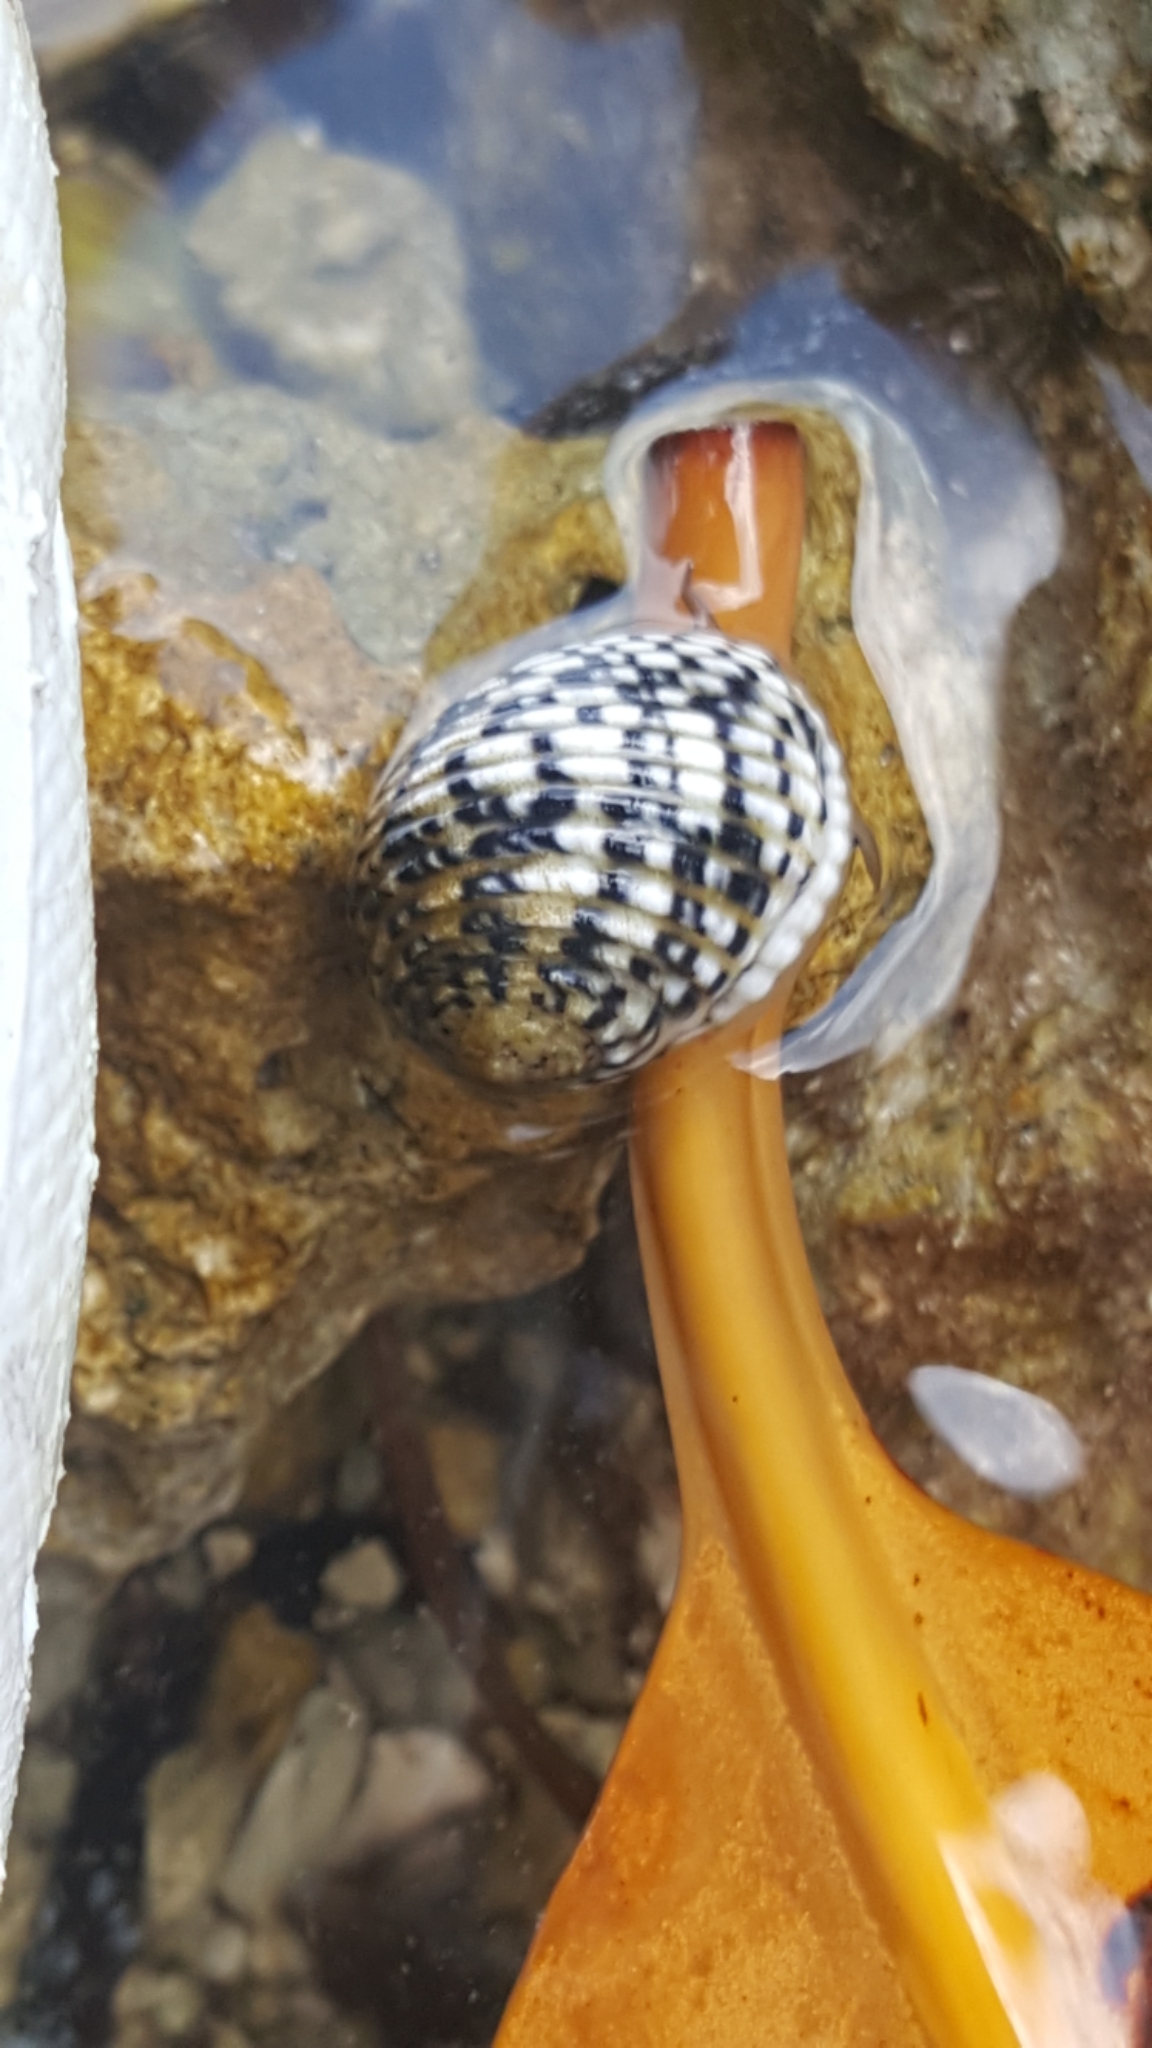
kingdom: Animalia
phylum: Mollusca
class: Gastropoda
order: Cycloneritida
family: Neritidae
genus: Nerita
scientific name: Nerita versicolor
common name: Four-tooth nerite
